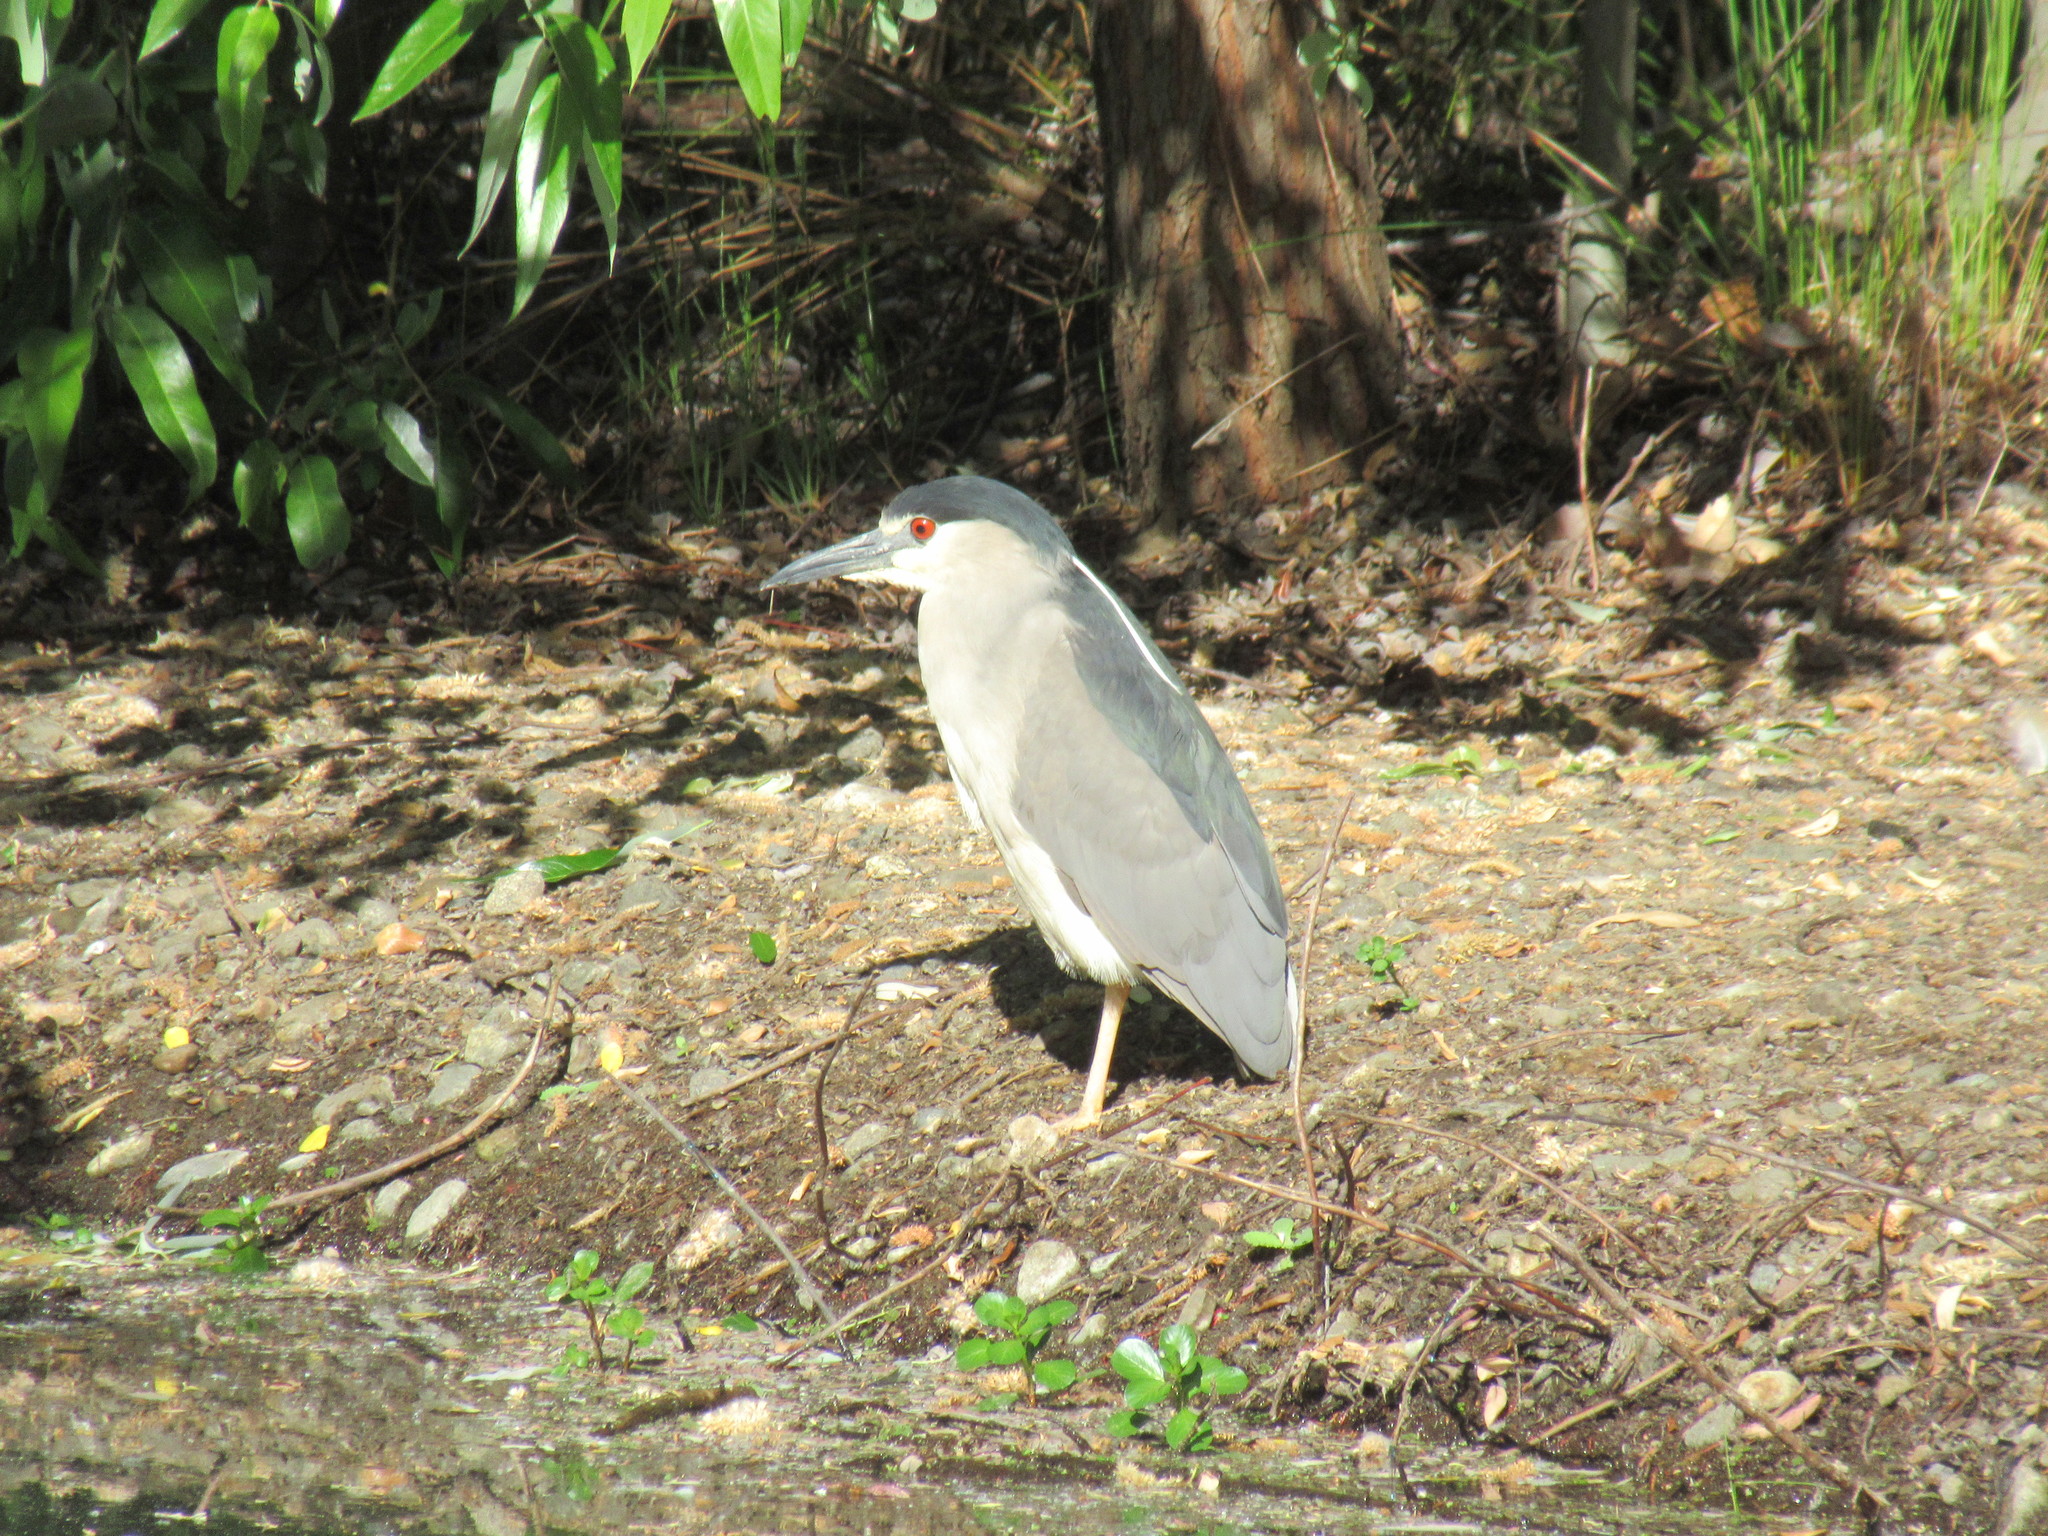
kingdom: Animalia
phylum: Chordata
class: Aves
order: Pelecaniformes
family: Ardeidae
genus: Nycticorax
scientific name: Nycticorax nycticorax
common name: Black-crowned night heron
